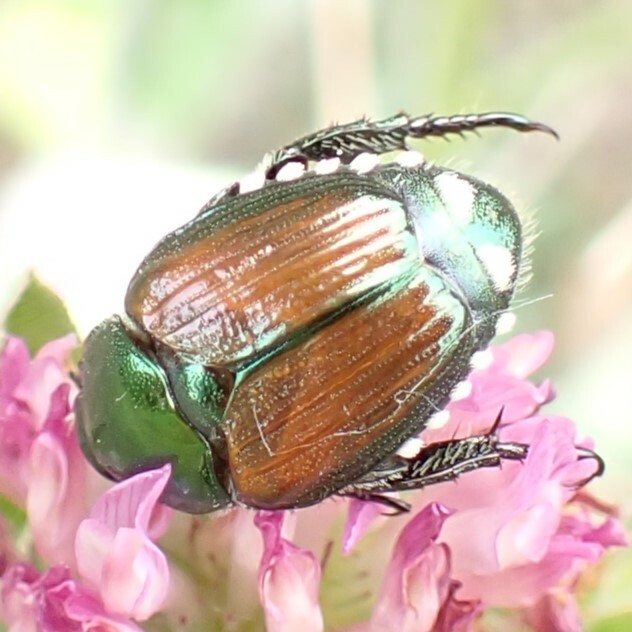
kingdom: Animalia
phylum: Arthropoda
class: Insecta
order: Coleoptera
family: Scarabaeidae
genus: Popillia
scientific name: Popillia japonica
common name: Japanese beetle
